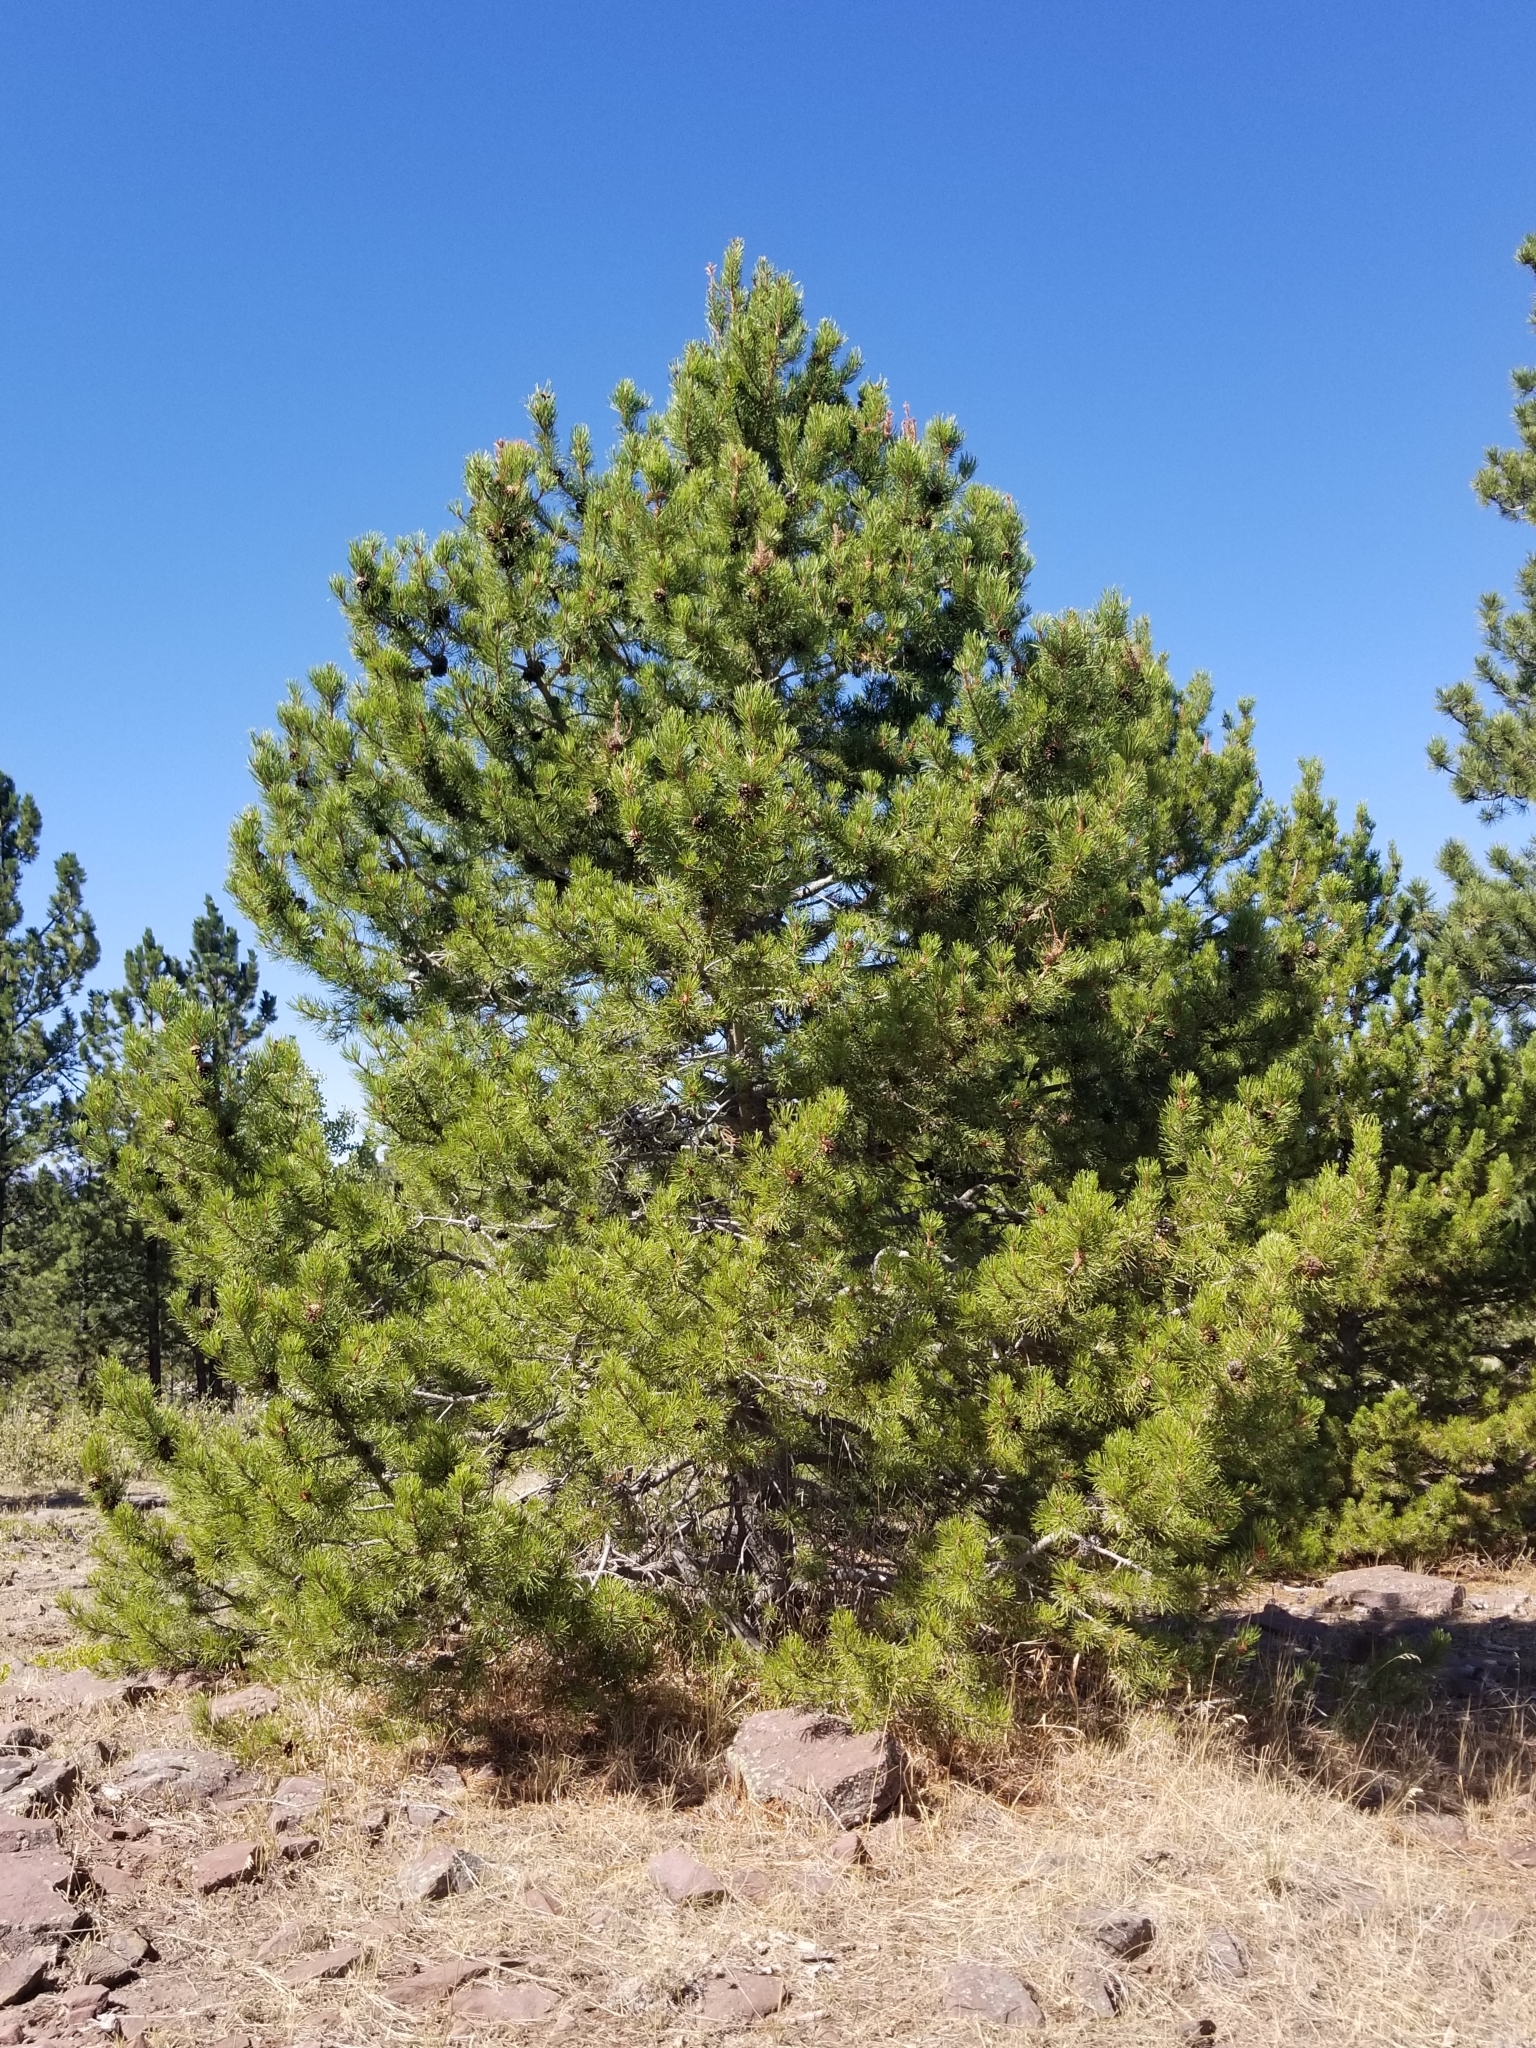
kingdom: Plantae
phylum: Tracheophyta
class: Pinopsida
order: Pinales
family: Pinaceae
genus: Pinus
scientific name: Pinus edulis
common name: Colorado pinyon
